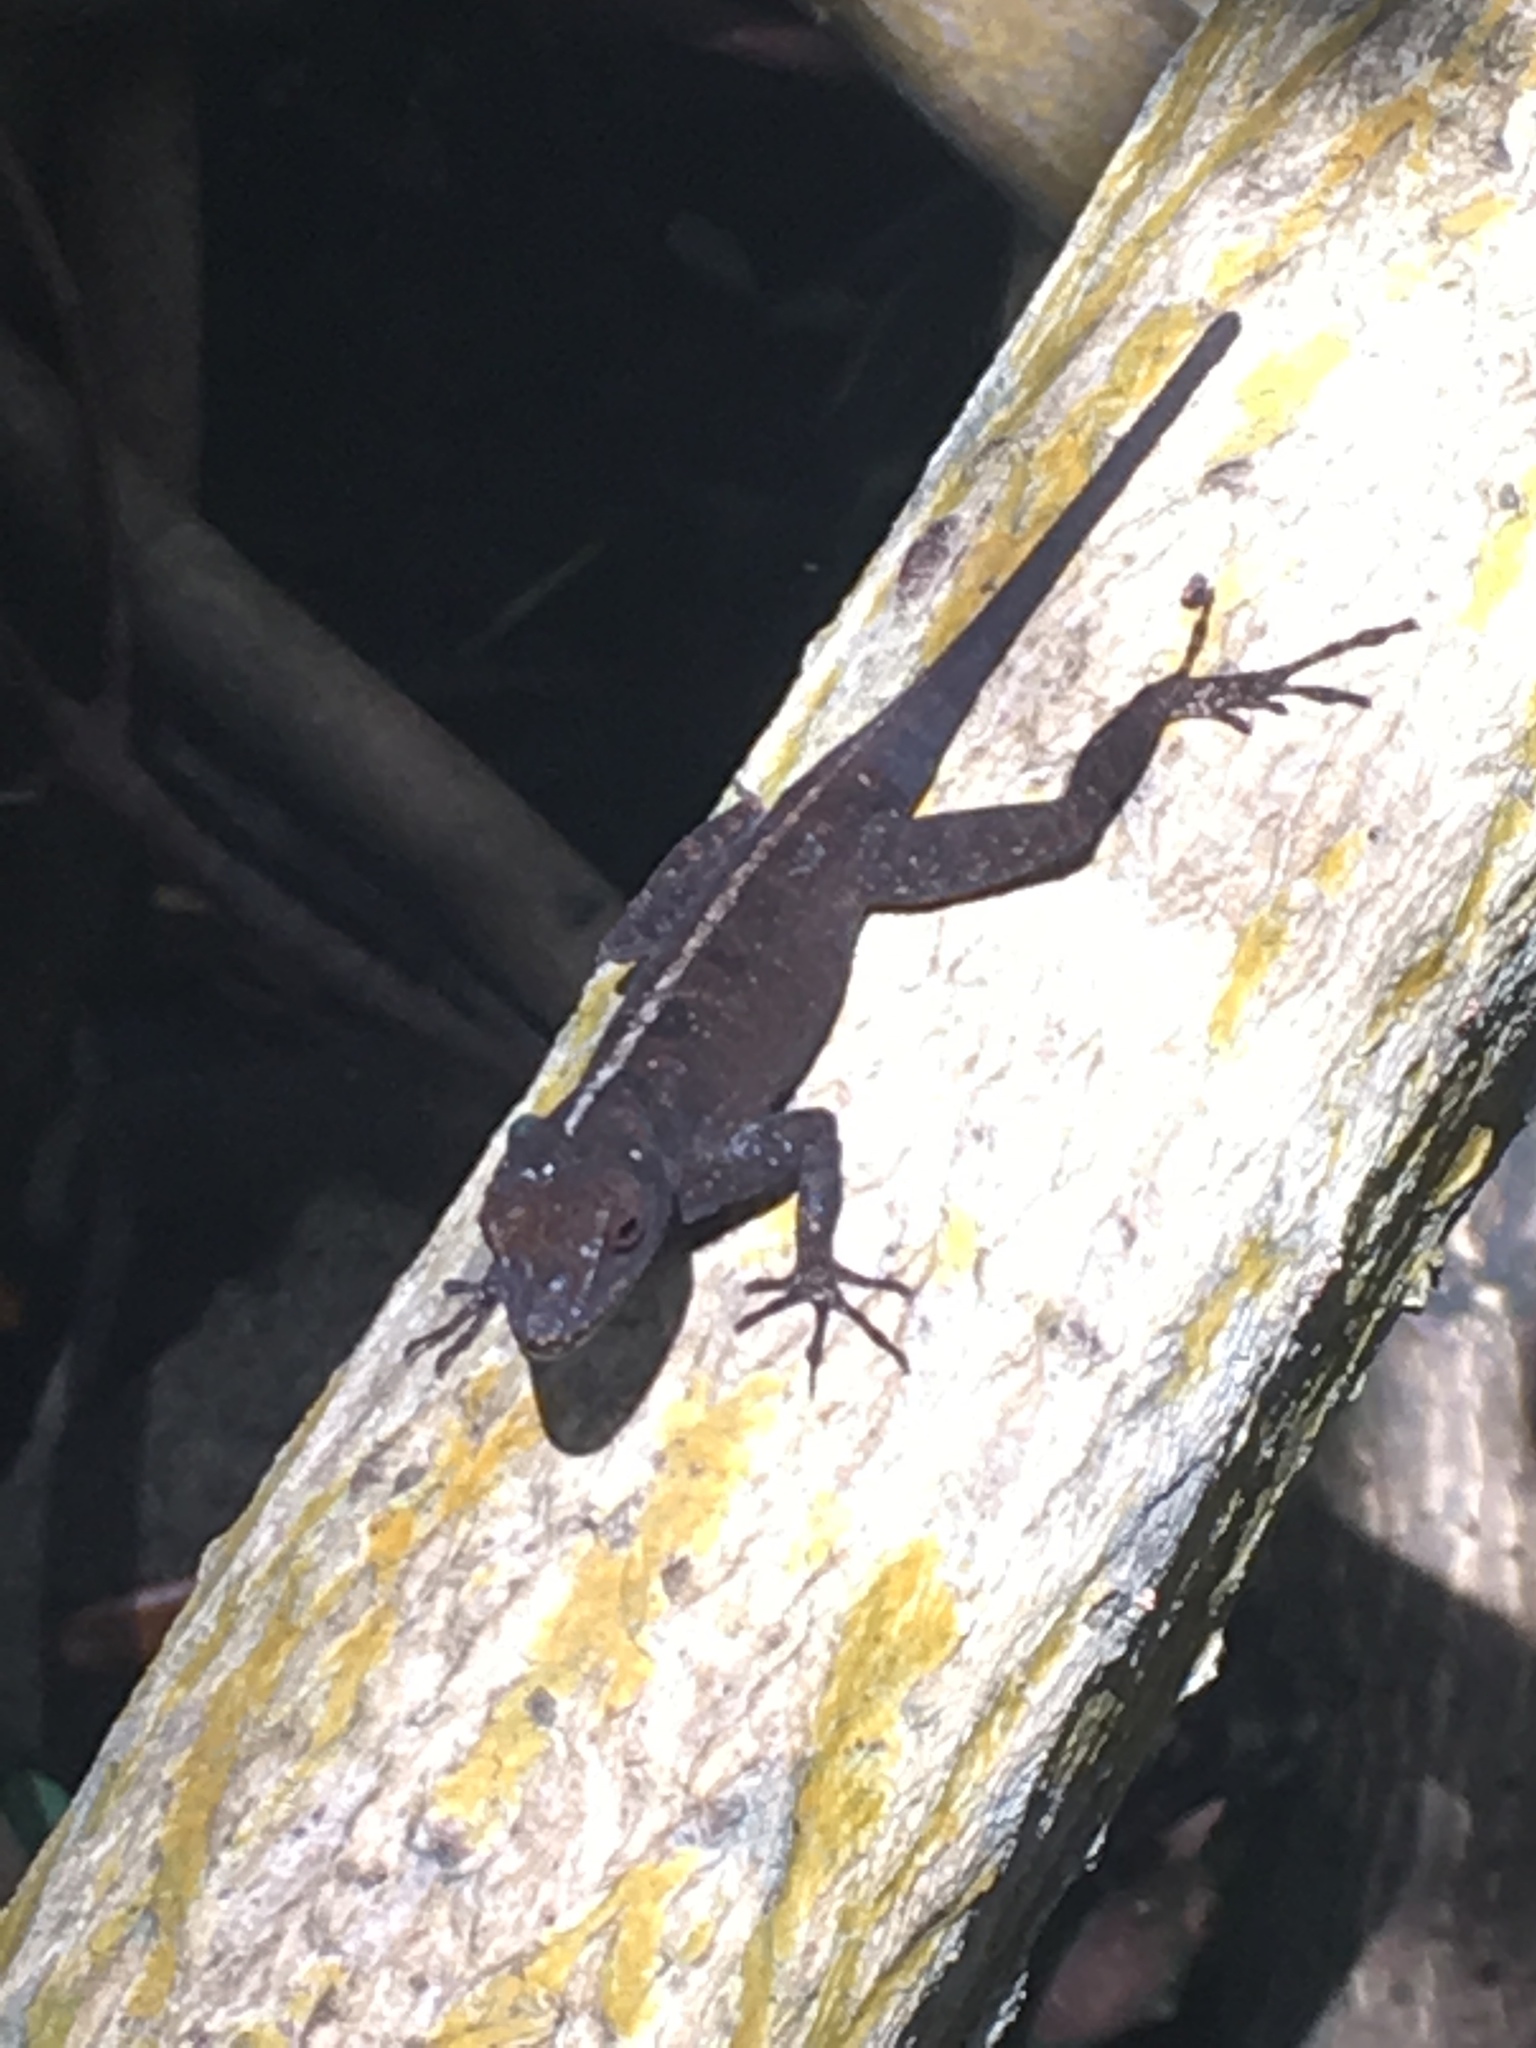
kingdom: Animalia
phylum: Chordata
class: Squamata
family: Dactyloidae
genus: Anolis
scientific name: Anolis sagrei
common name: Brown anole
